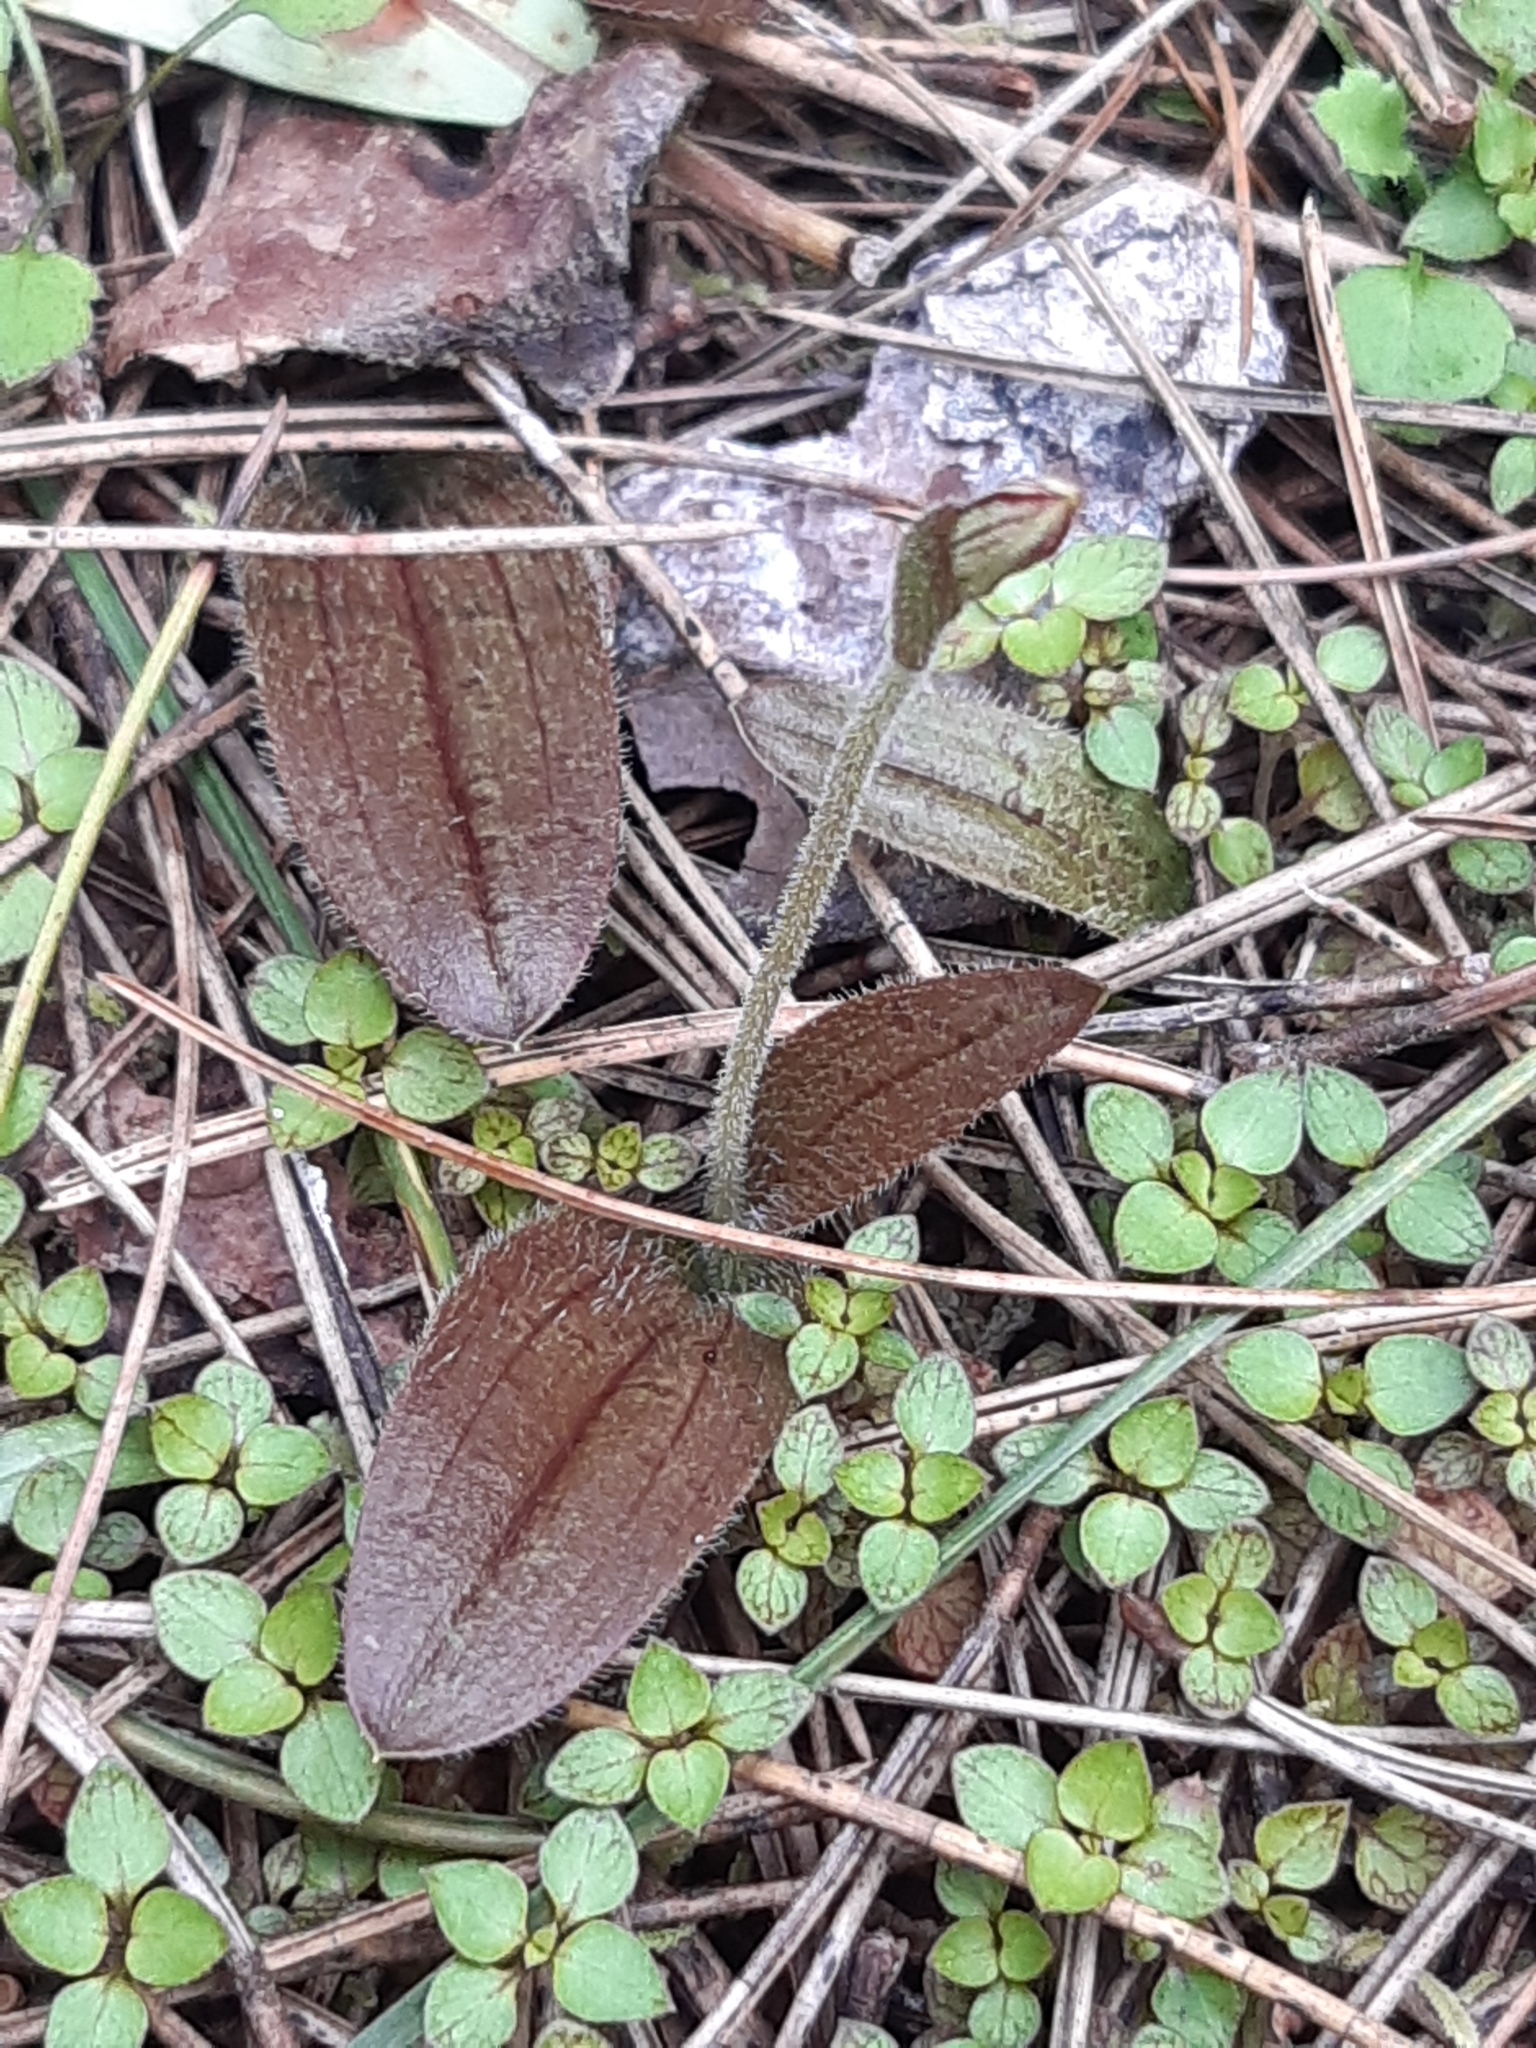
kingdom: Plantae
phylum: Tracheophyta
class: Liliopsida
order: Asparagales
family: Orchidaceae
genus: Aporostylis
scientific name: Aporostylis bifolia
